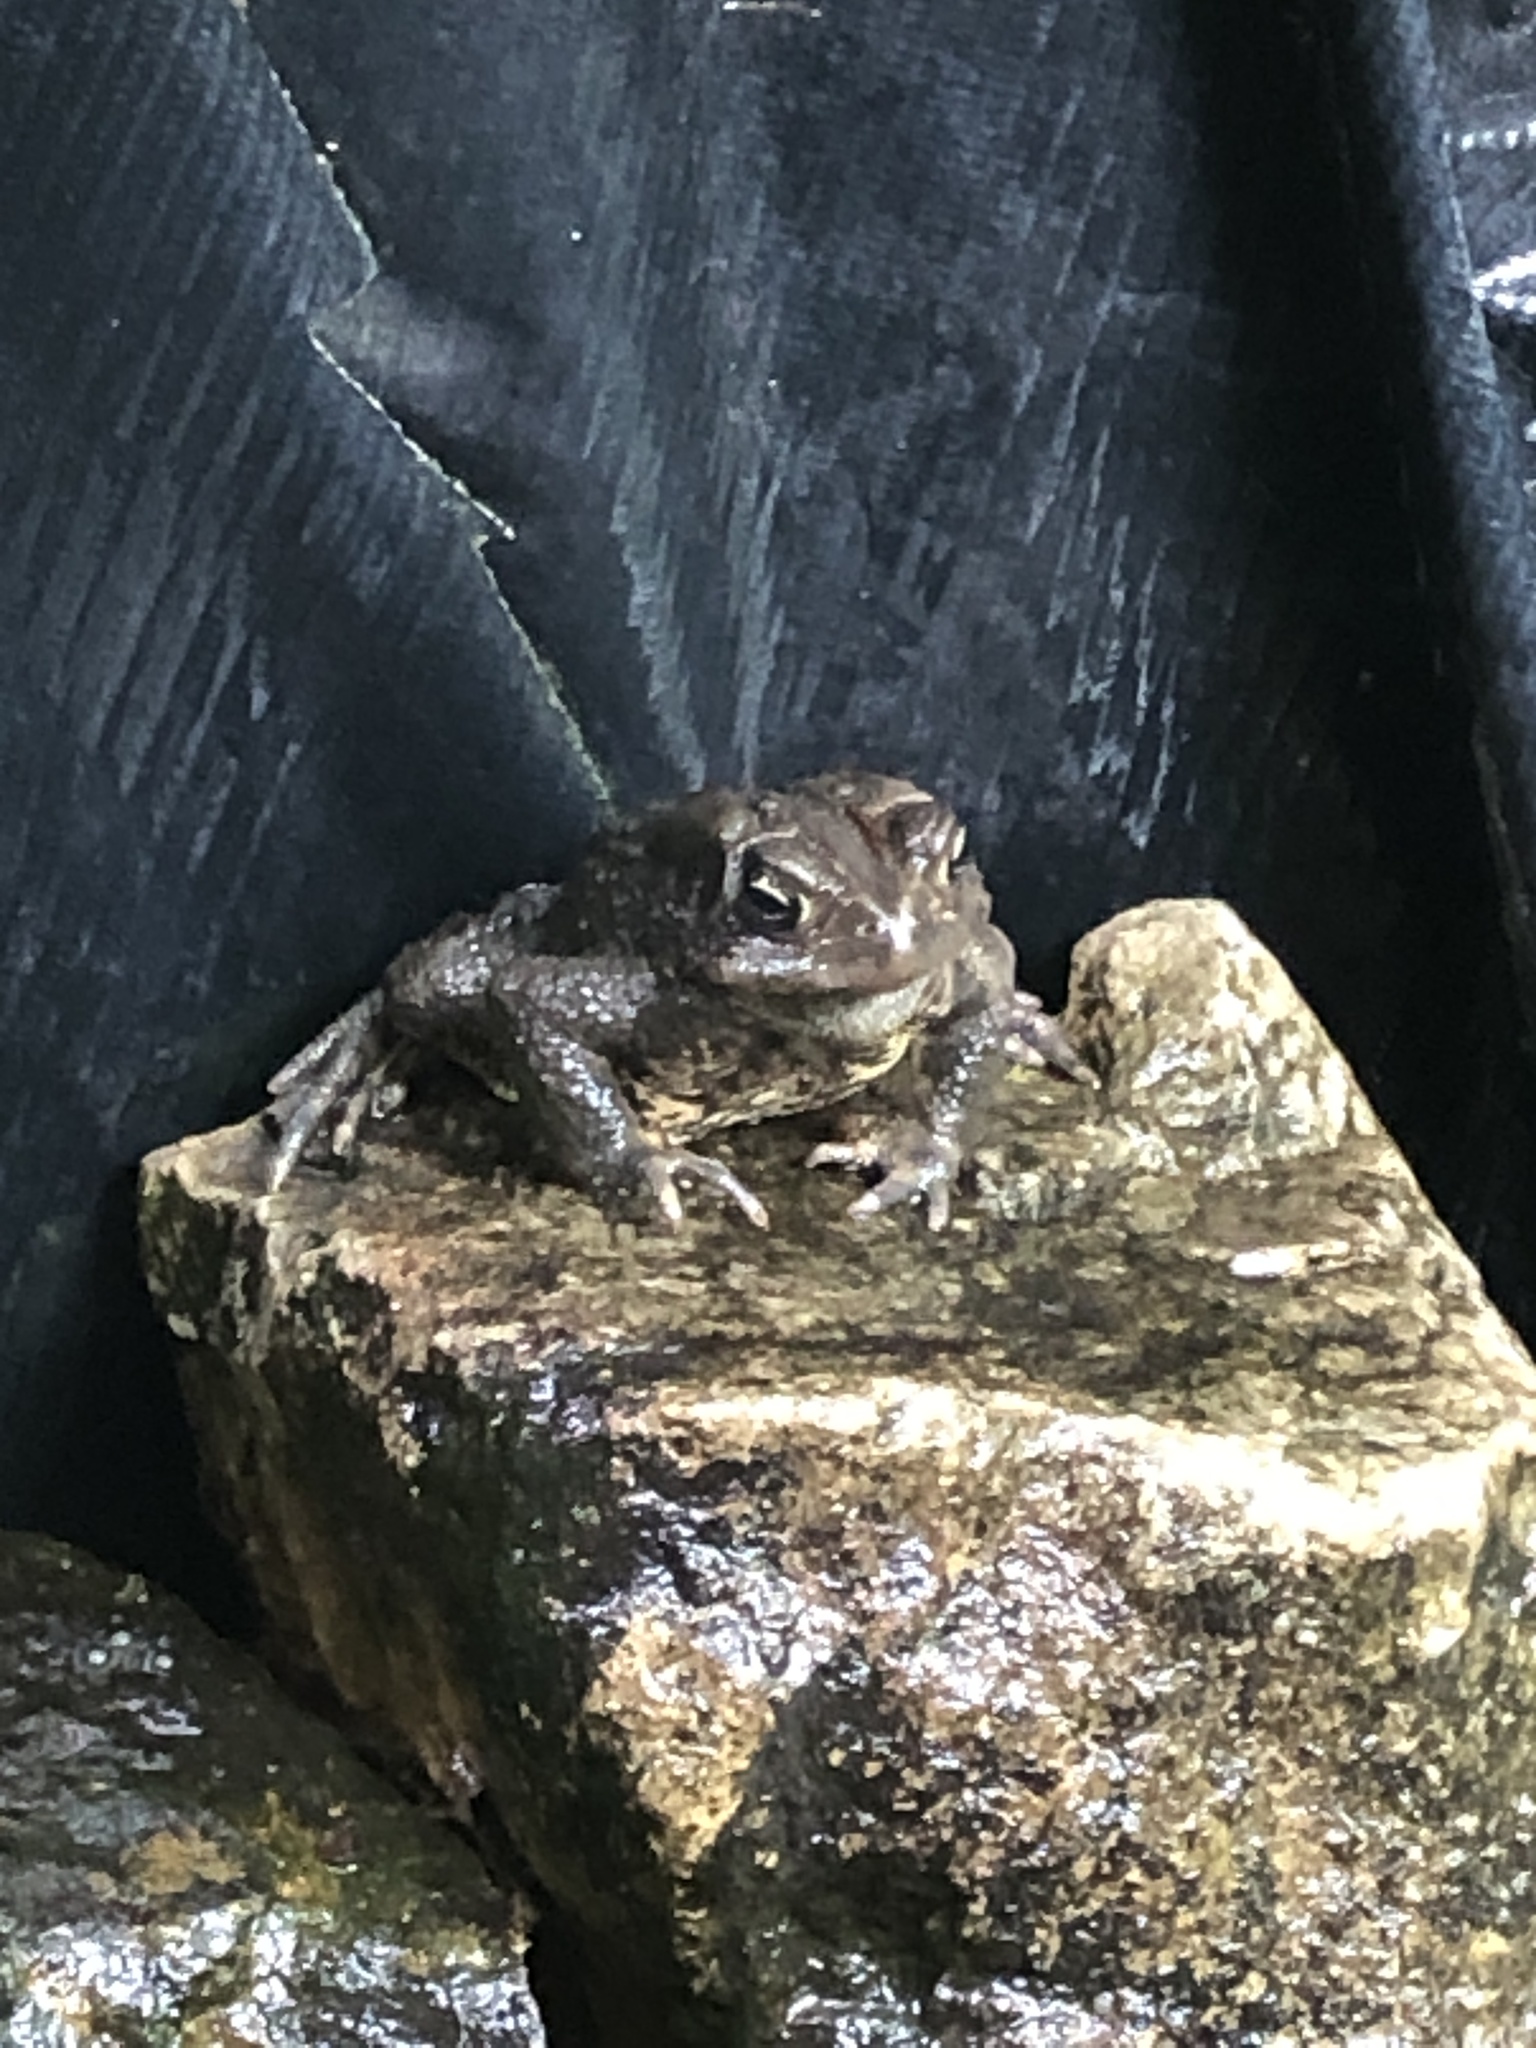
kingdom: Animalia
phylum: Chordata
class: Amphibia
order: Anura
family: Bufonidae
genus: Anaxyrus
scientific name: Anaxyrus americanus
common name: American toad
